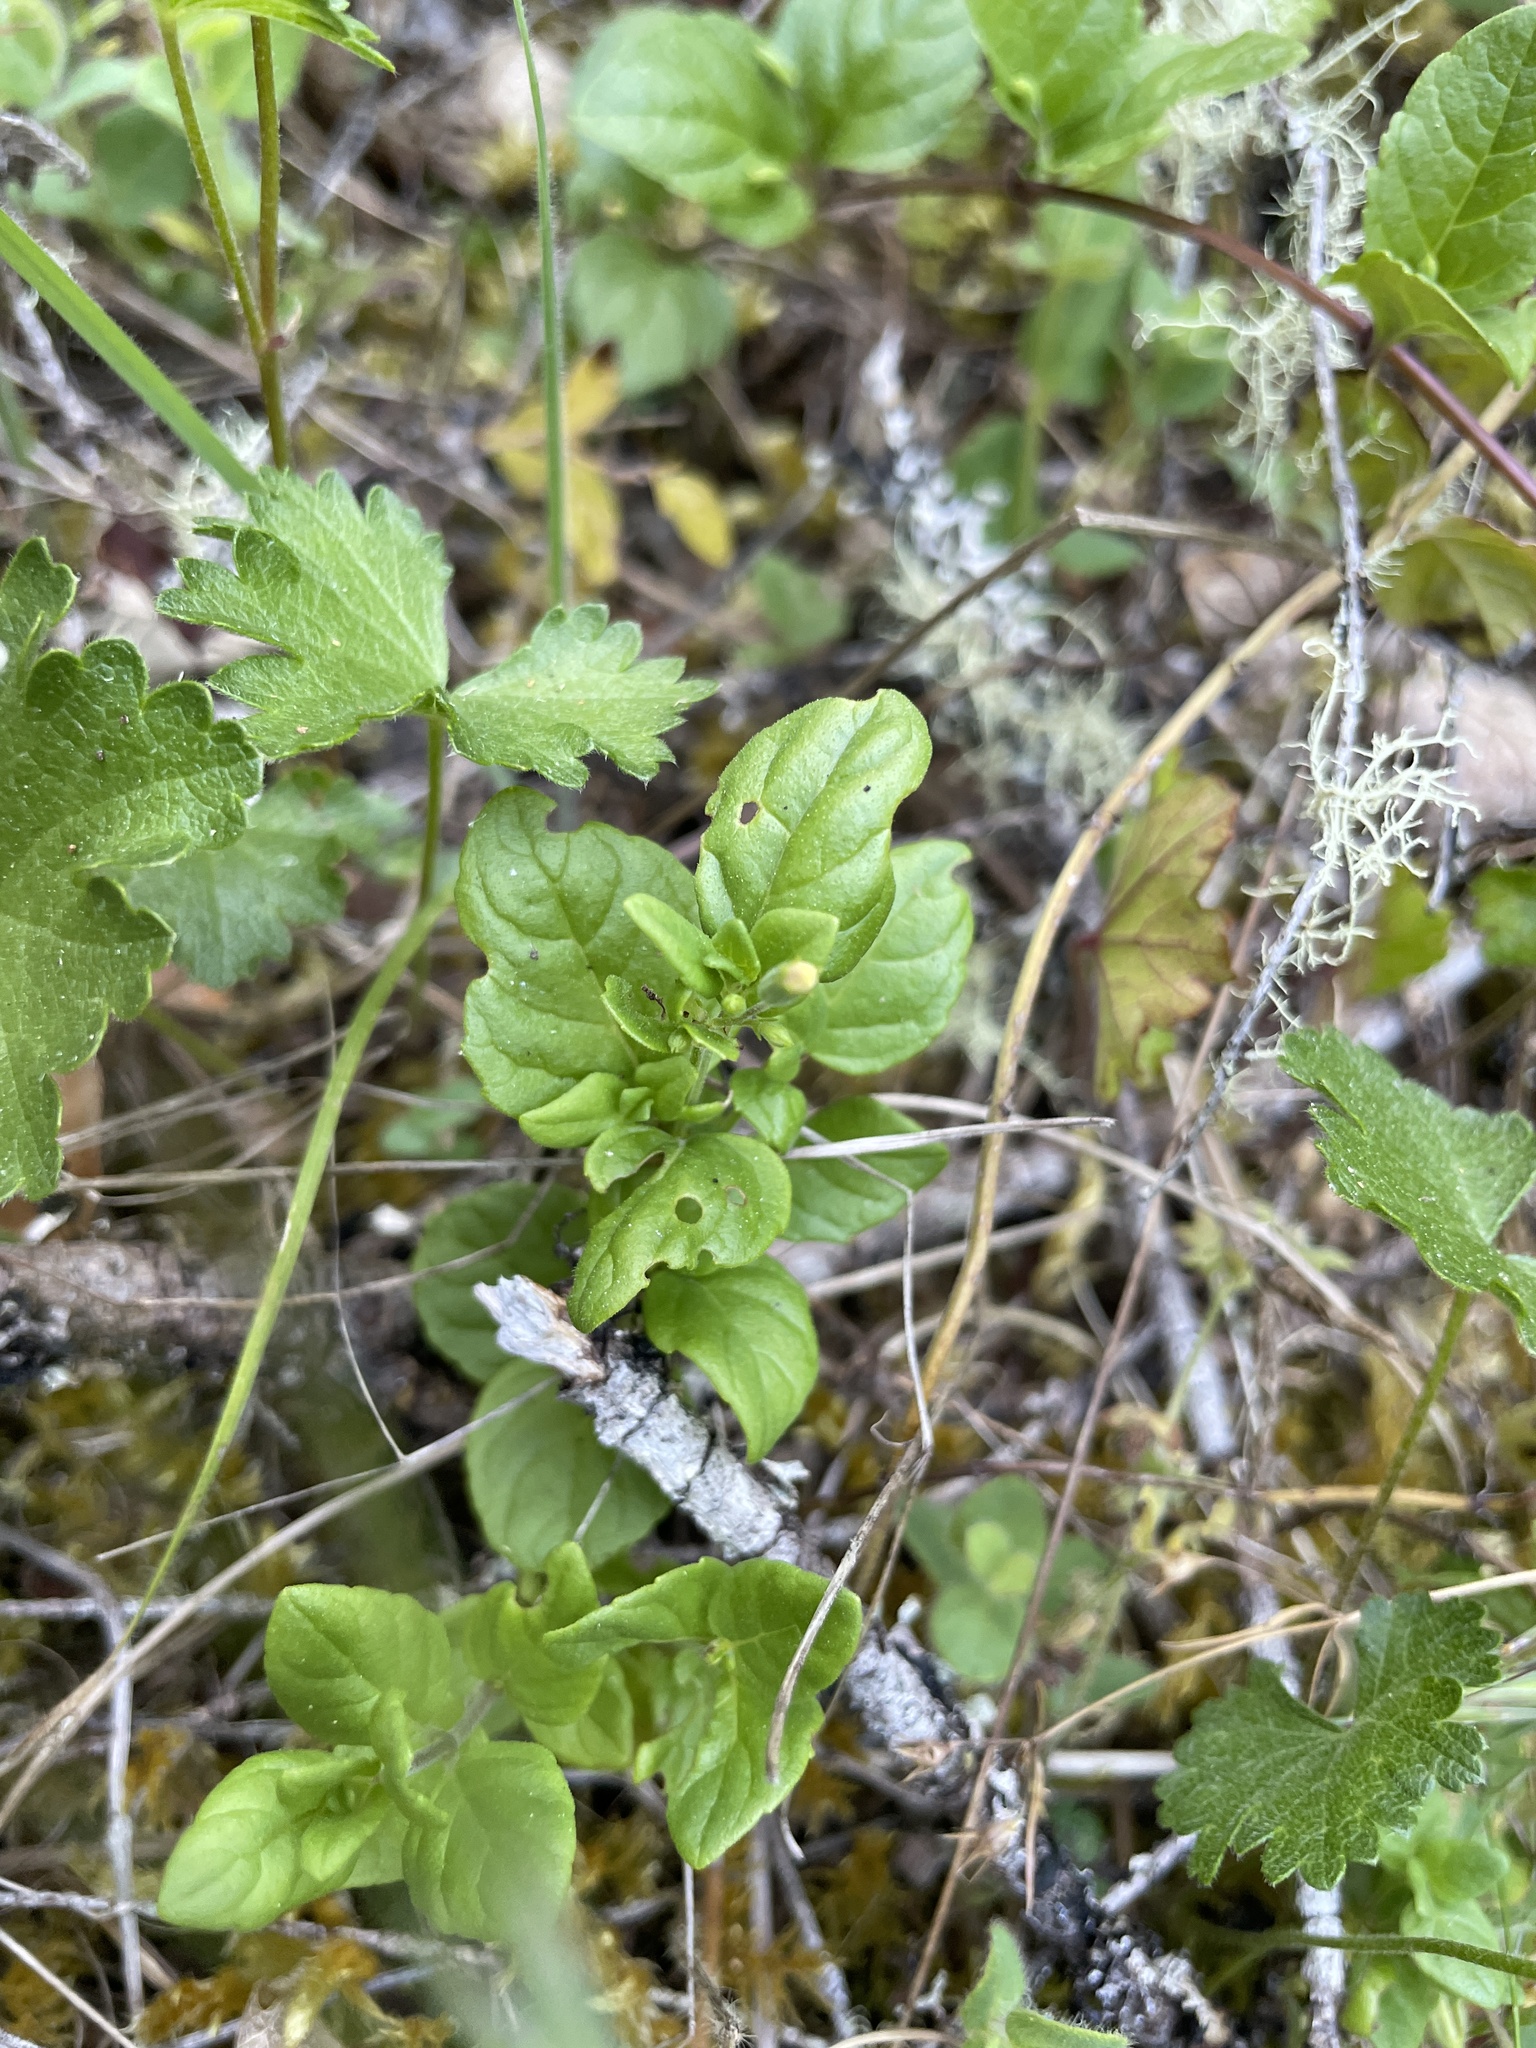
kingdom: Plantae
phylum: Tracheophyta
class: Magnoliopsida
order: Lamiales
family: Lamiaceae
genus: Micromeria
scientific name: Micromeria douglasii
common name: Yerba buena
